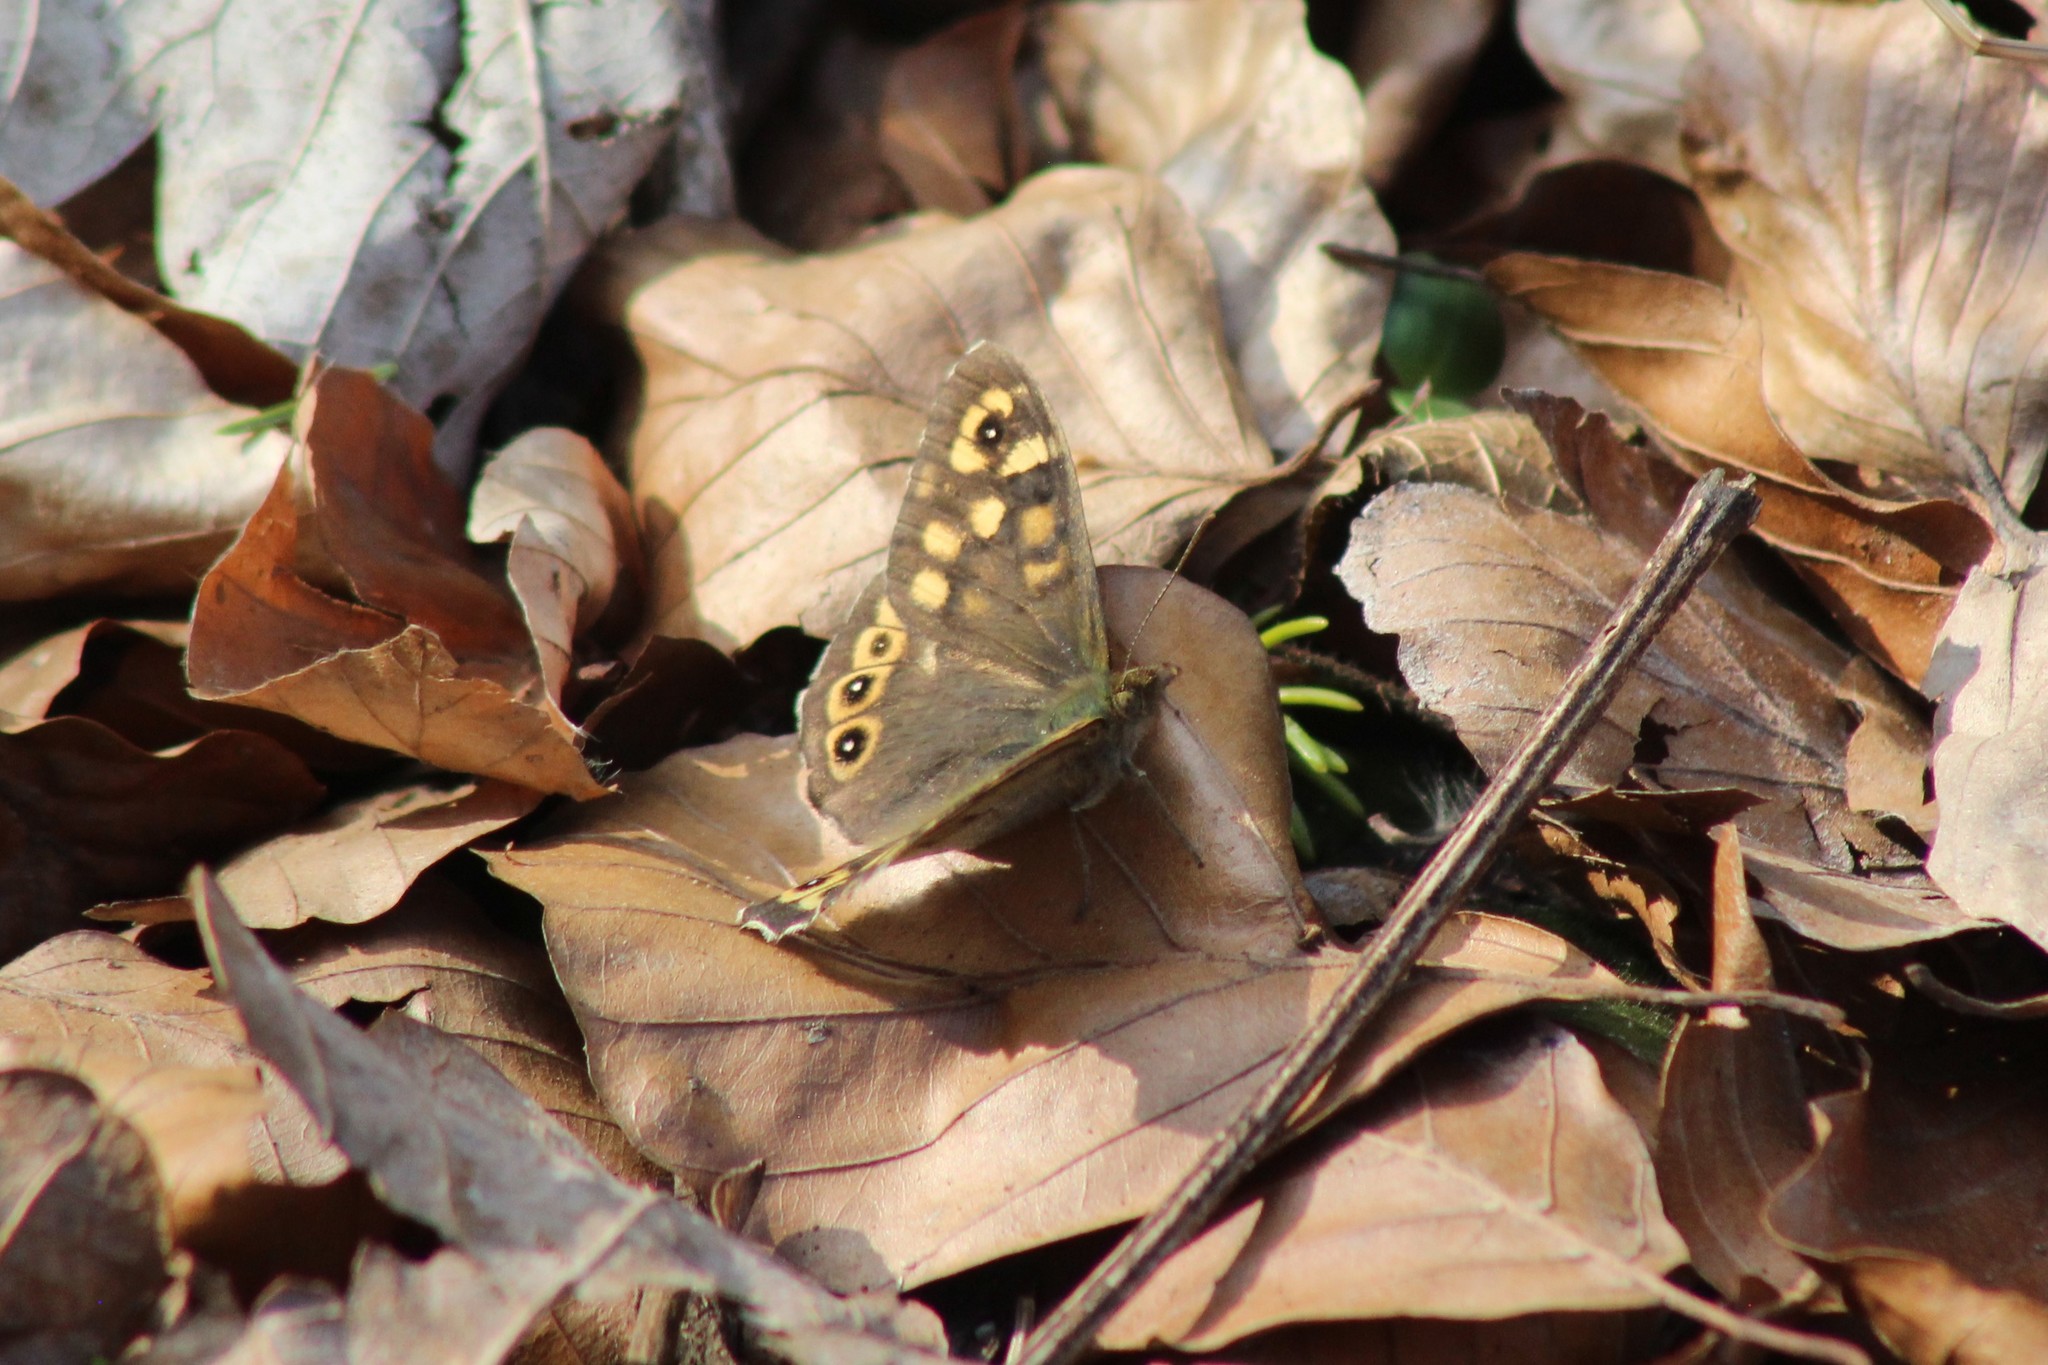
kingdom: Animalia
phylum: Arthropoda
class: Insecta
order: Lepidoptera
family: Nymphalidae
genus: Pararge
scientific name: Pararge aegeria
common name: Speckled wood
